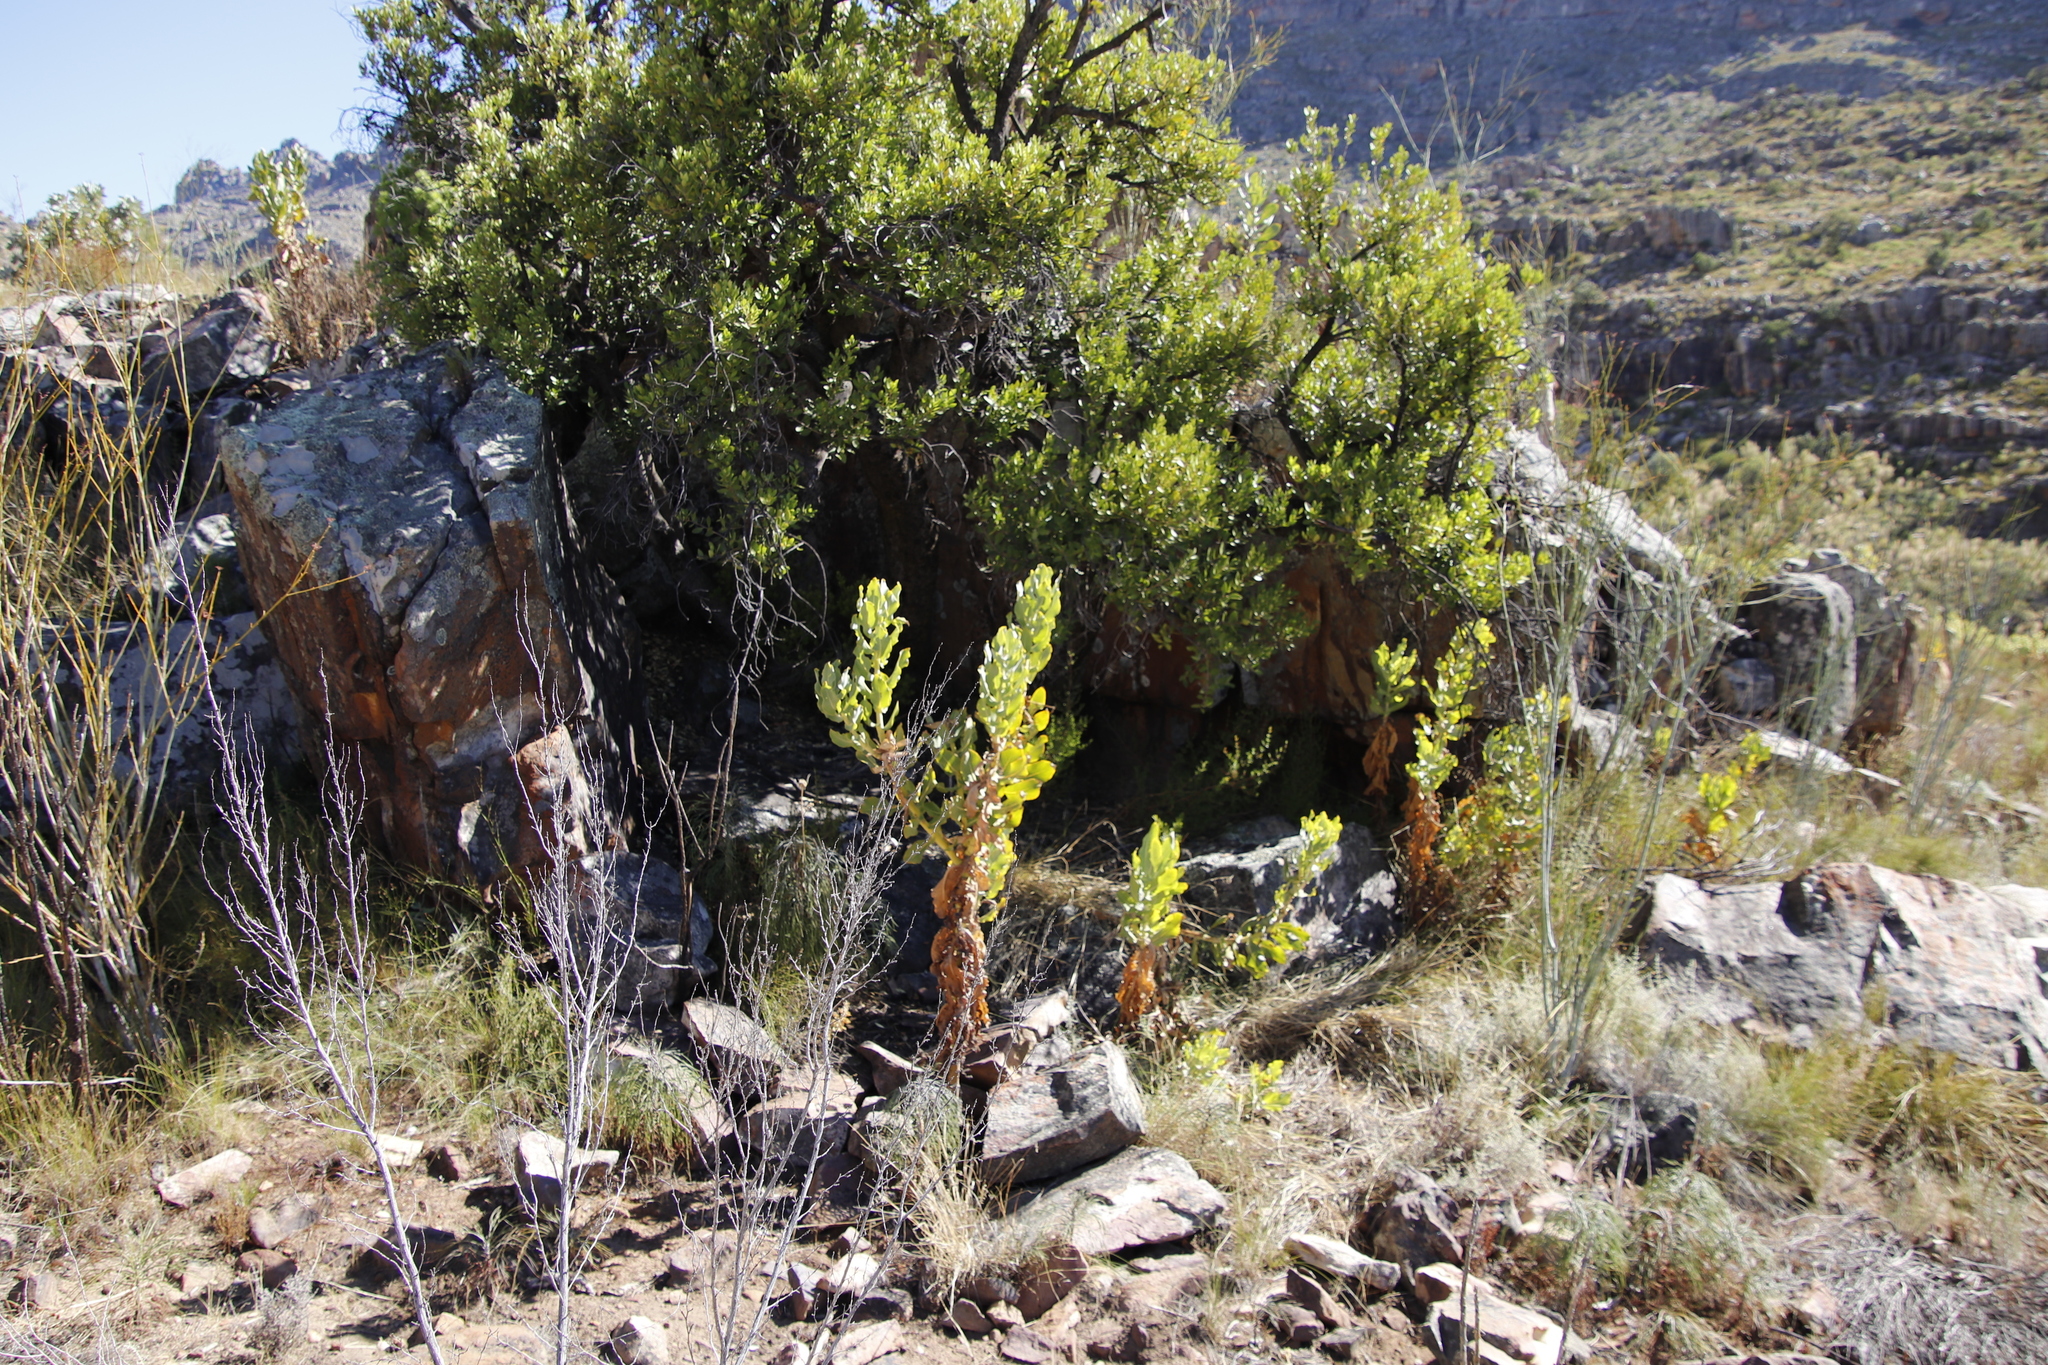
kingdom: Plantae
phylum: Tracheophyta
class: Magnoliopsida
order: Asterales
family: Asteraceae
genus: Othonna
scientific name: Othonna parviflora
